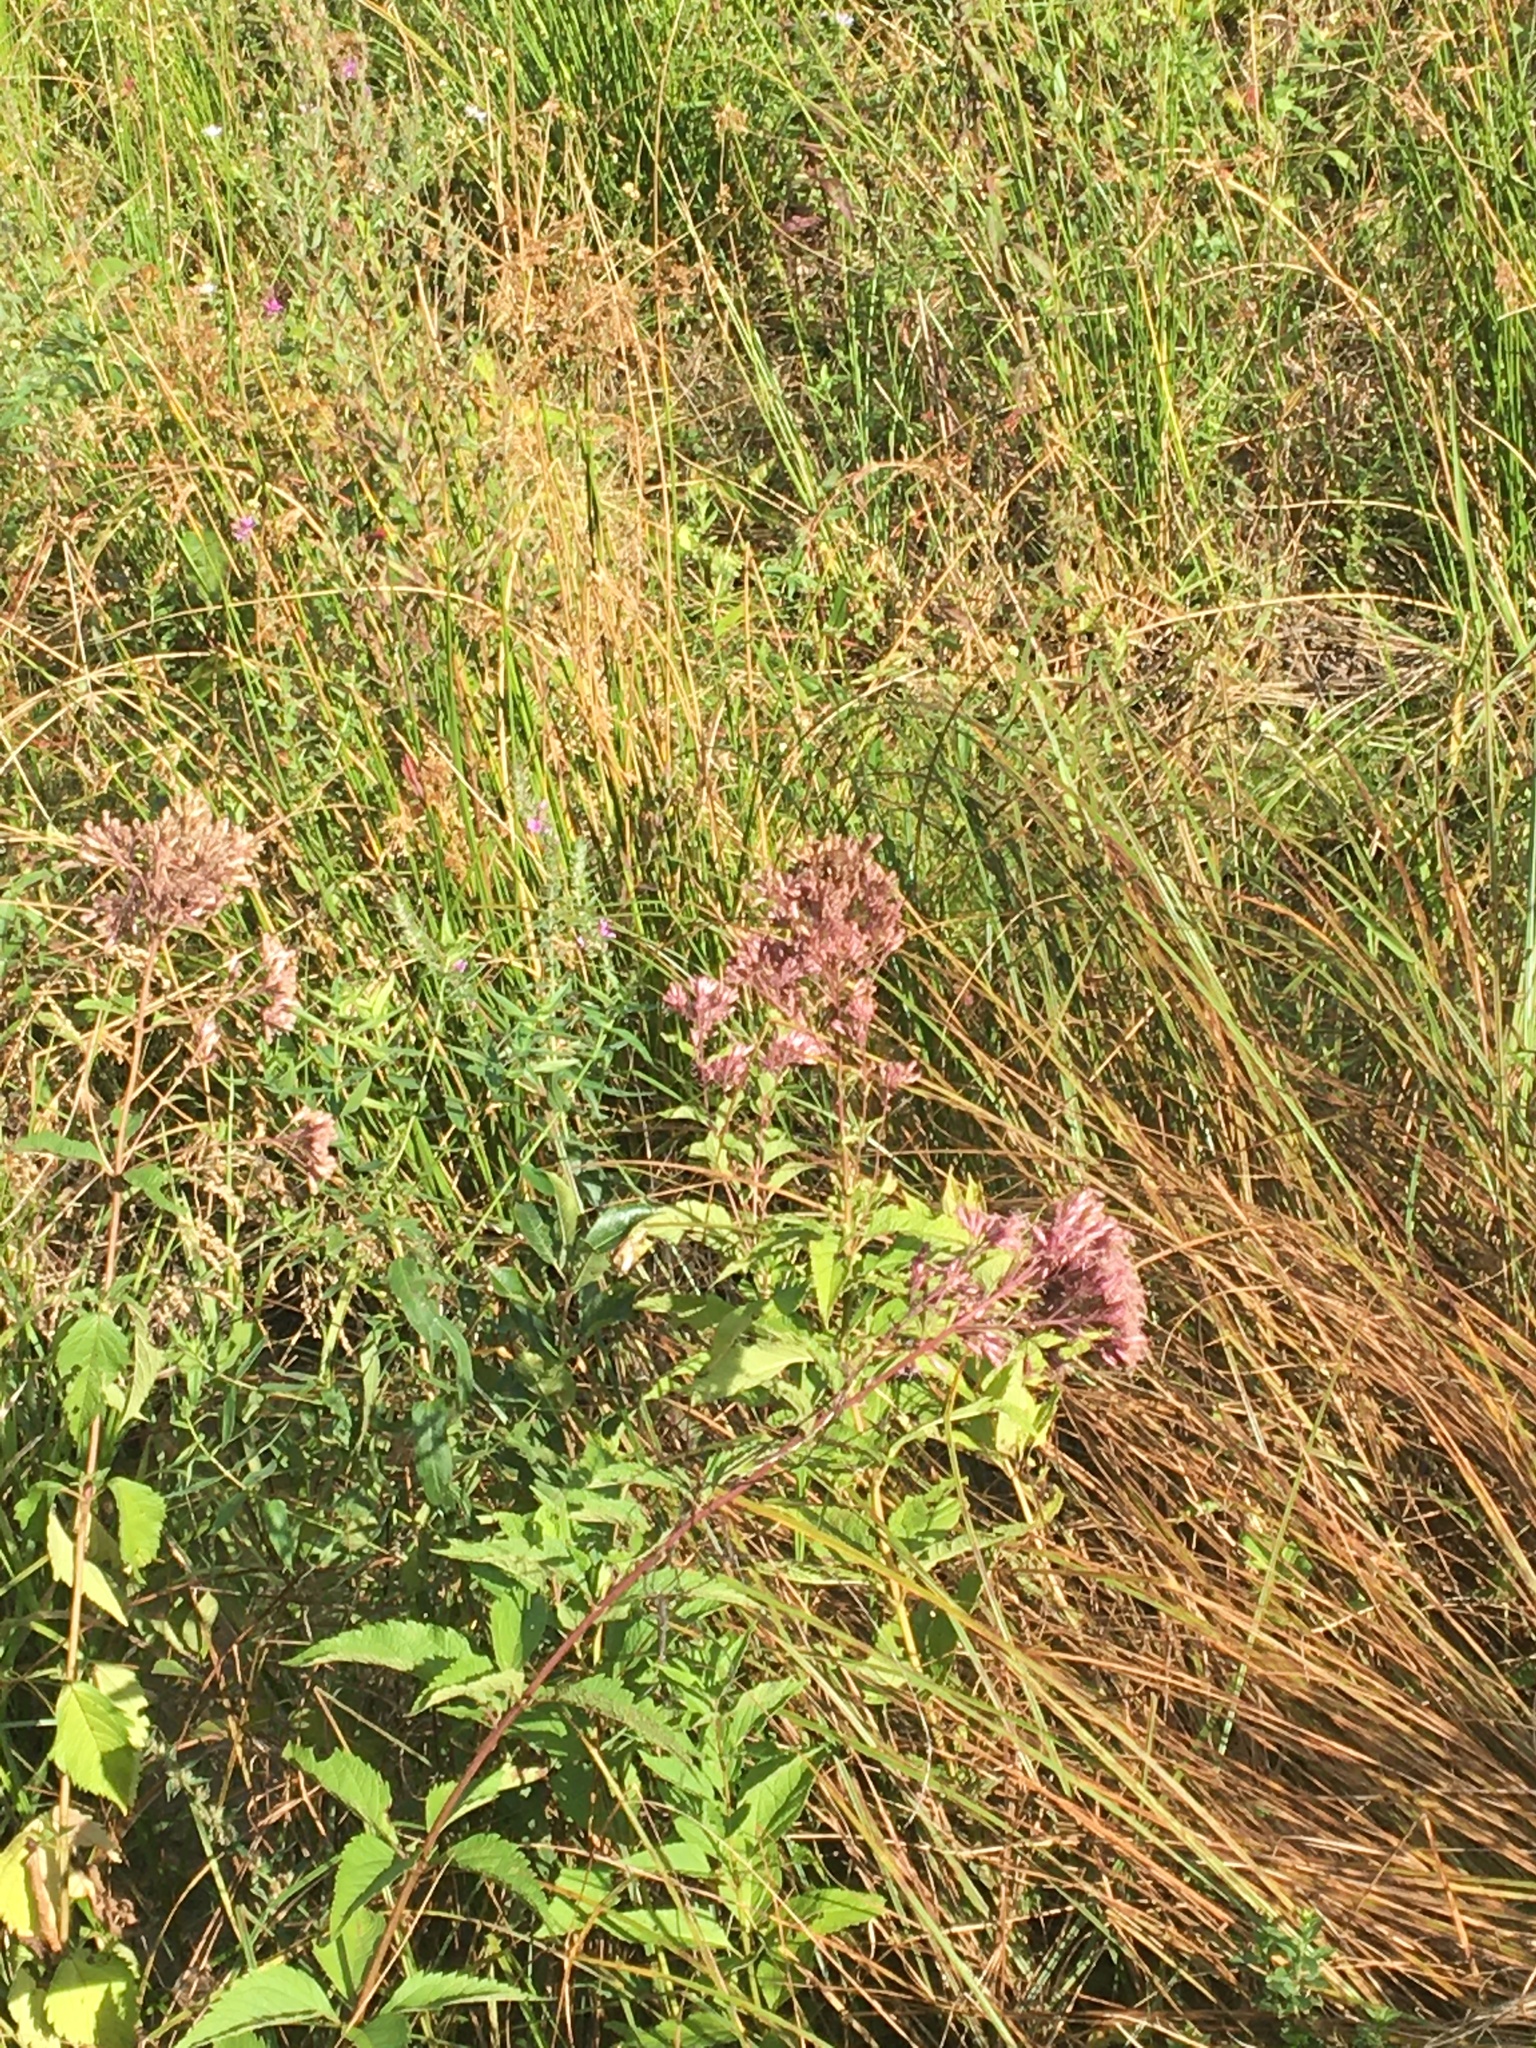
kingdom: Plantae
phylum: Tracheophyta
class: Magnoliopsida
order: Asterales
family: Asteraceae
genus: Eutrochium
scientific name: Eutrochium dubium
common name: Coastal plain joe pye weed
